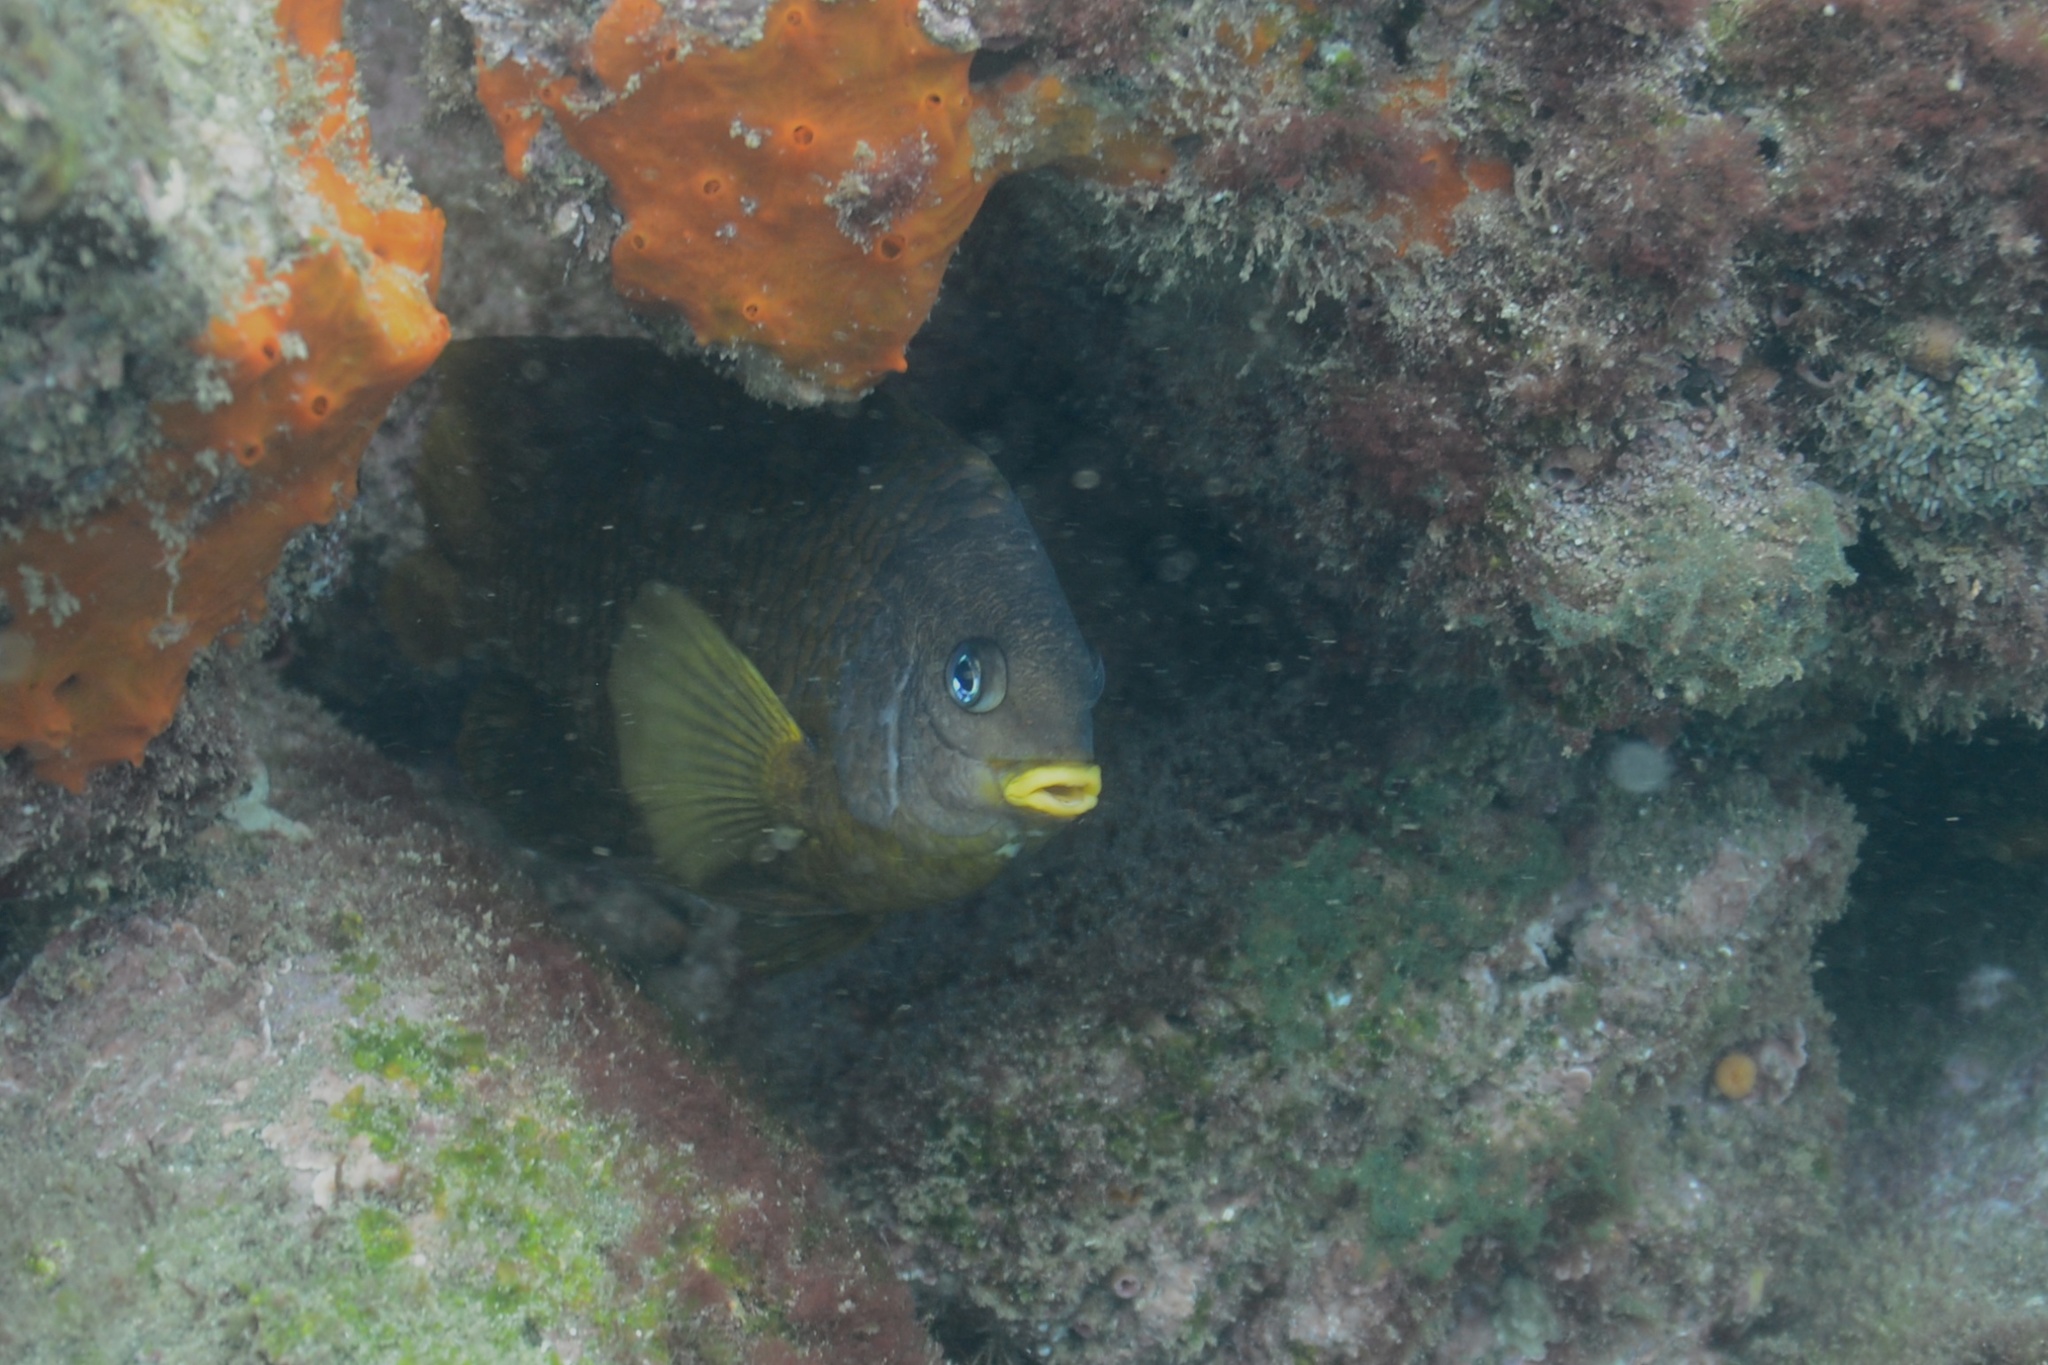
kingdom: Animalia
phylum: Chordata
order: Perciformes
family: Pomacentridae
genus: Stegastes
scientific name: Stegastes arcifrons
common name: Galapagos gregory
